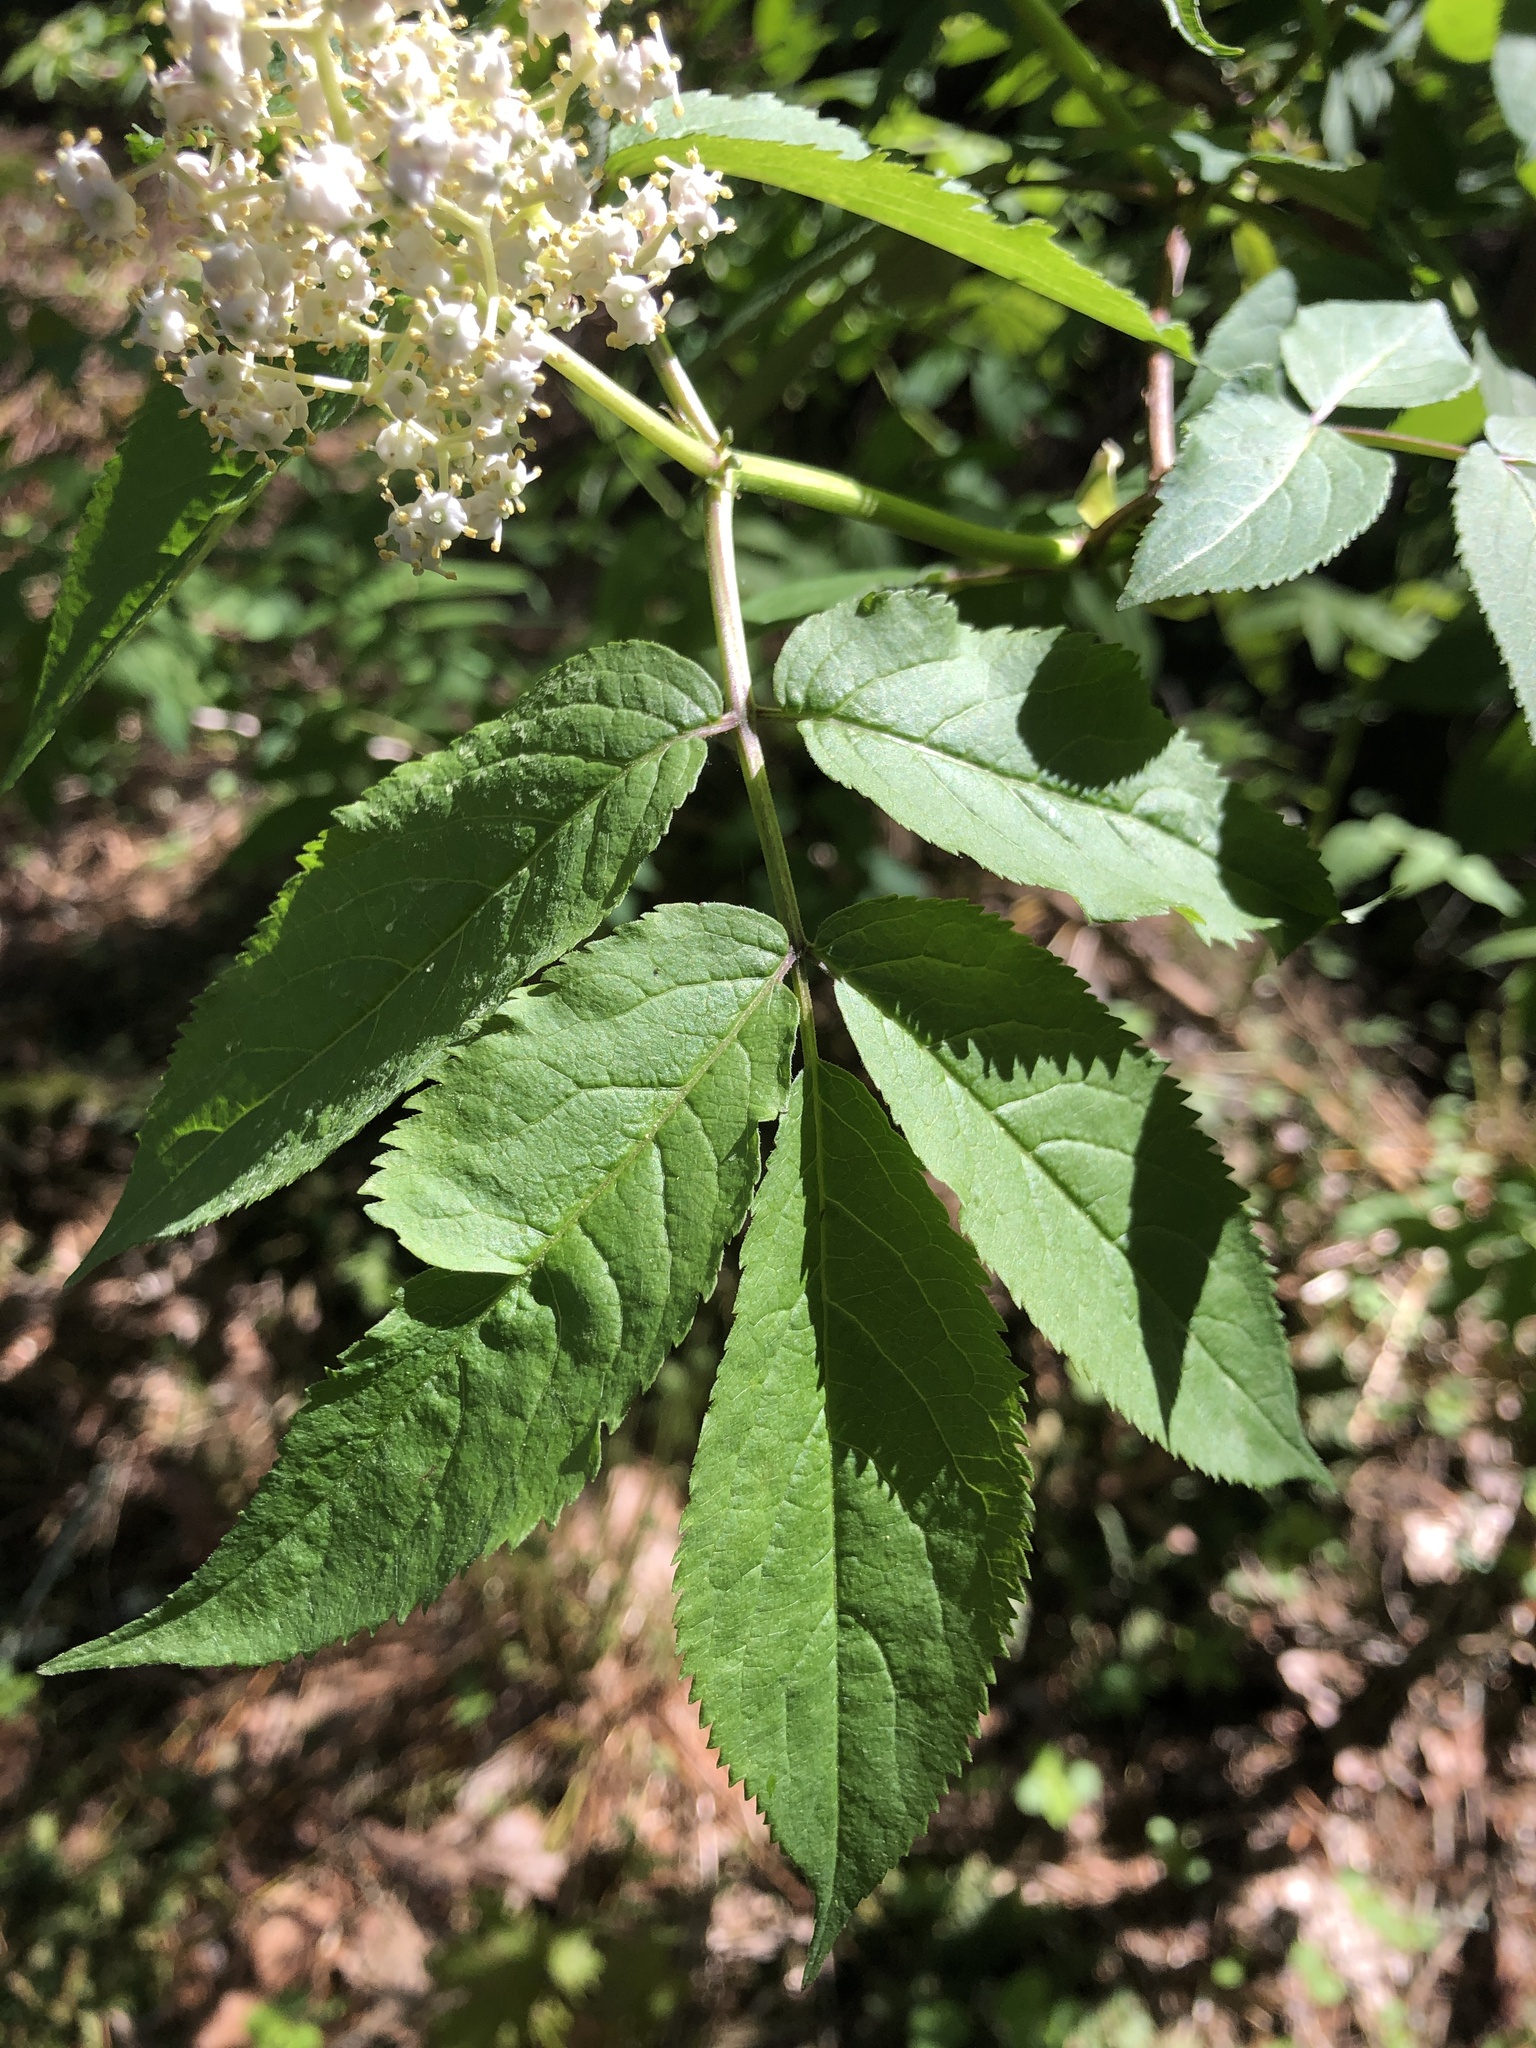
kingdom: Plantae
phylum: Tracheophyta
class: Magnoliopsida
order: Dipsacales
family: Viburnaceae
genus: Sambucus
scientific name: Sambucus racemosa
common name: Red-berried elder
